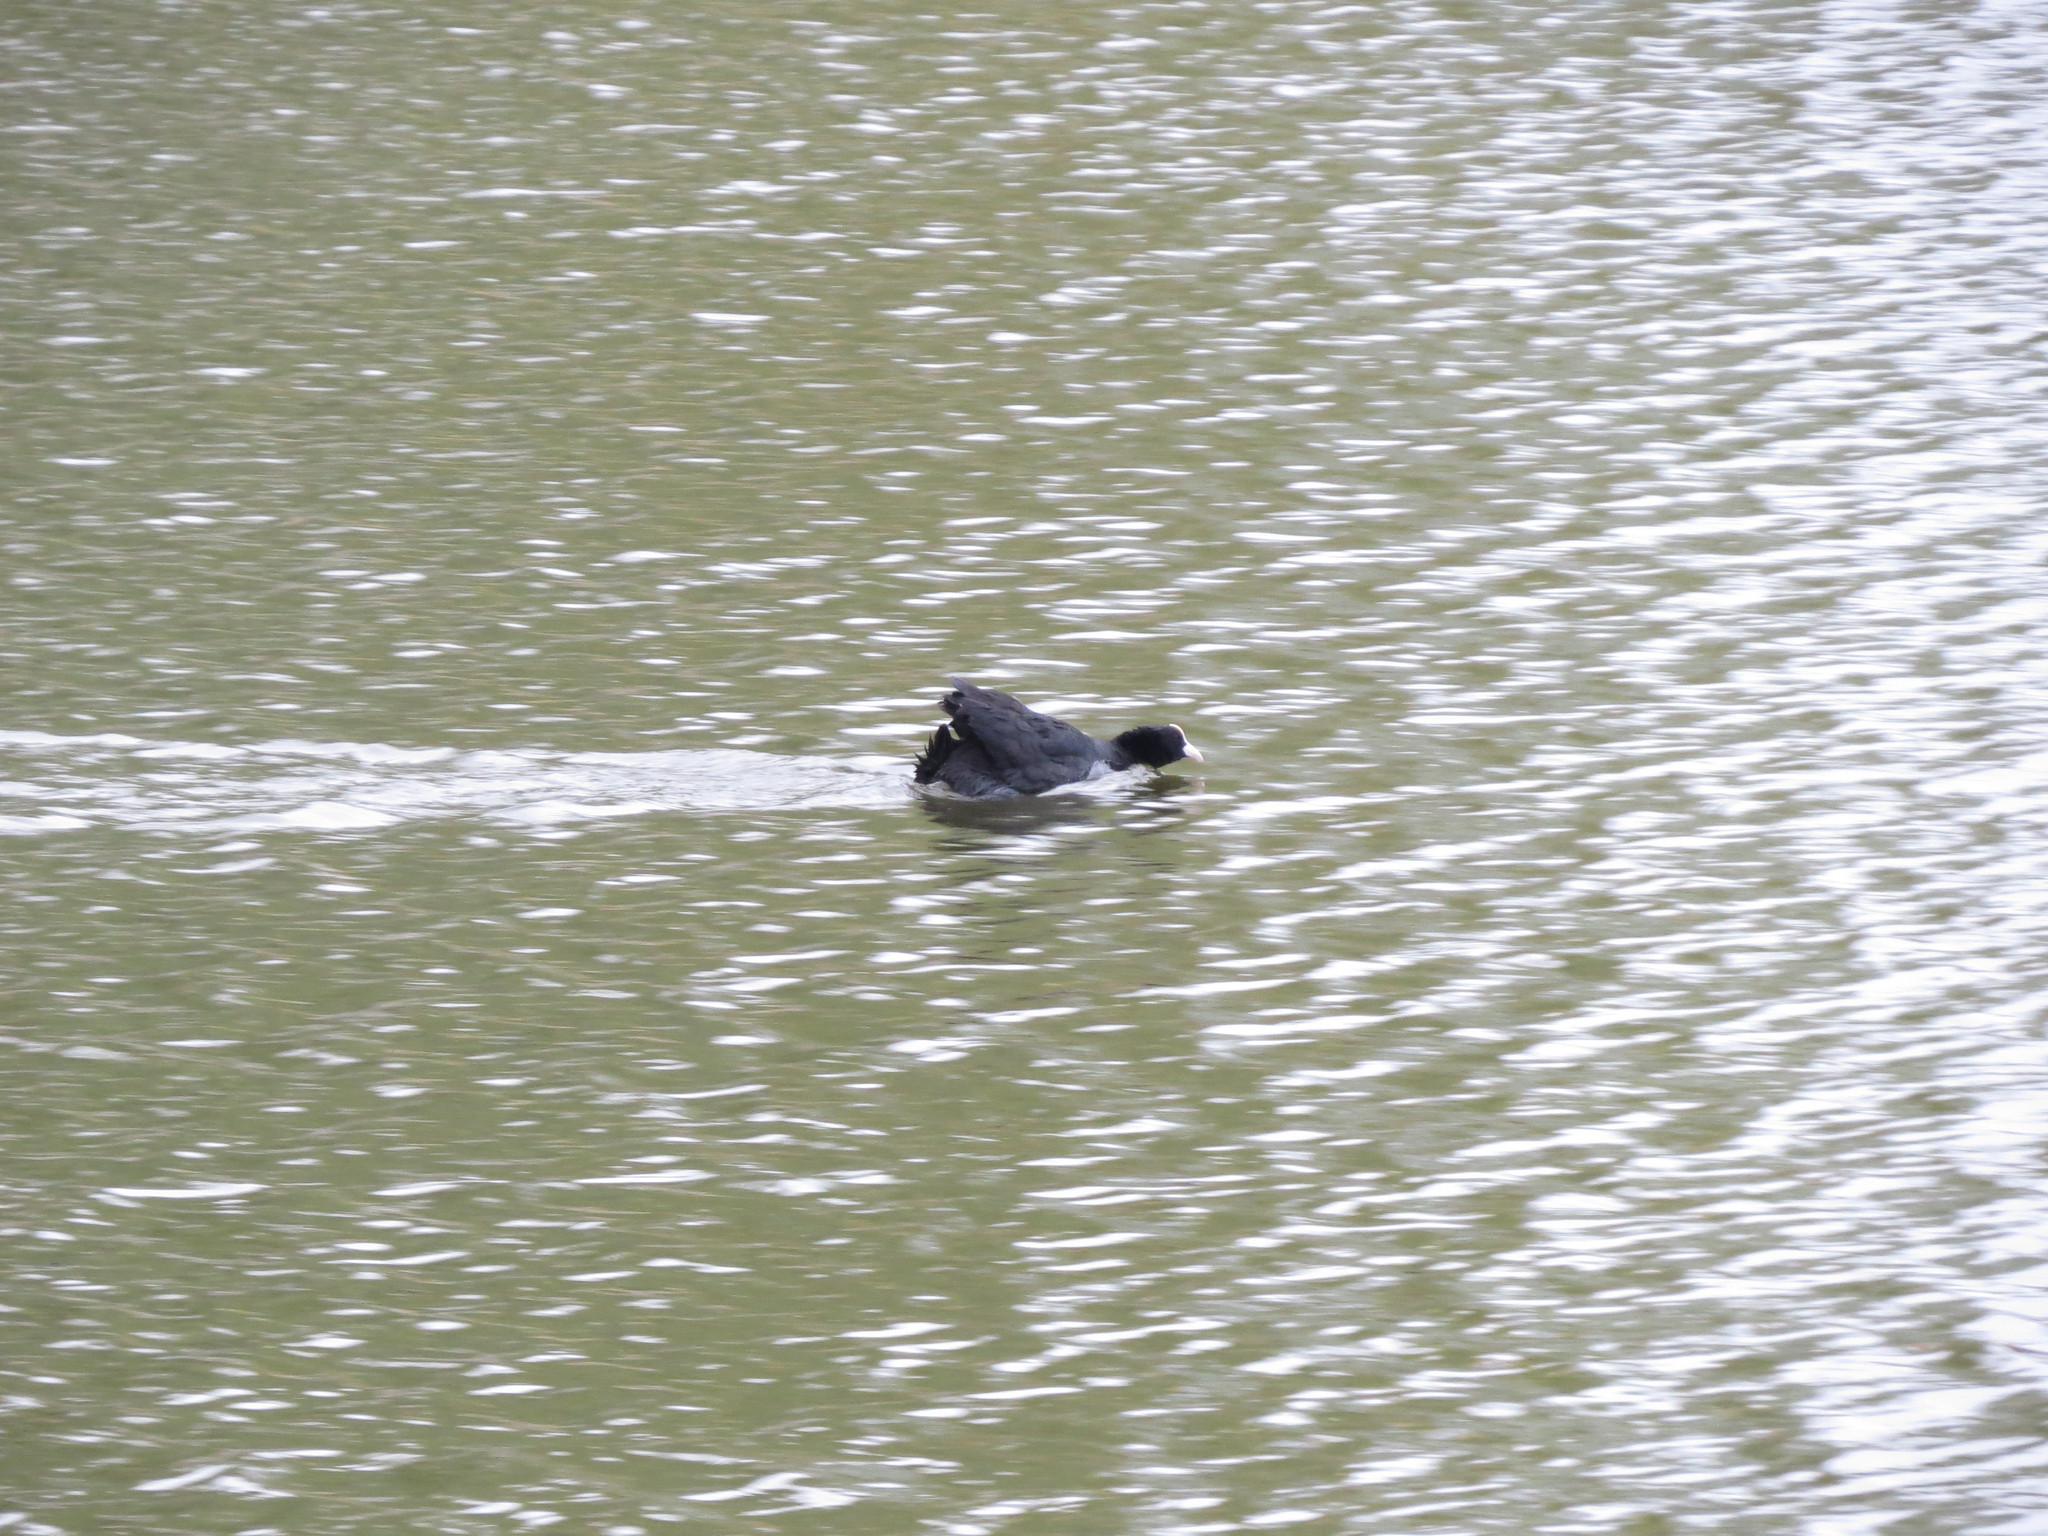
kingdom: Animalia
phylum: Chordata
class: Aves
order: Gruiformes
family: Rallidae
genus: Fulica
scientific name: Fulica atra
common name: Eurasian coot
